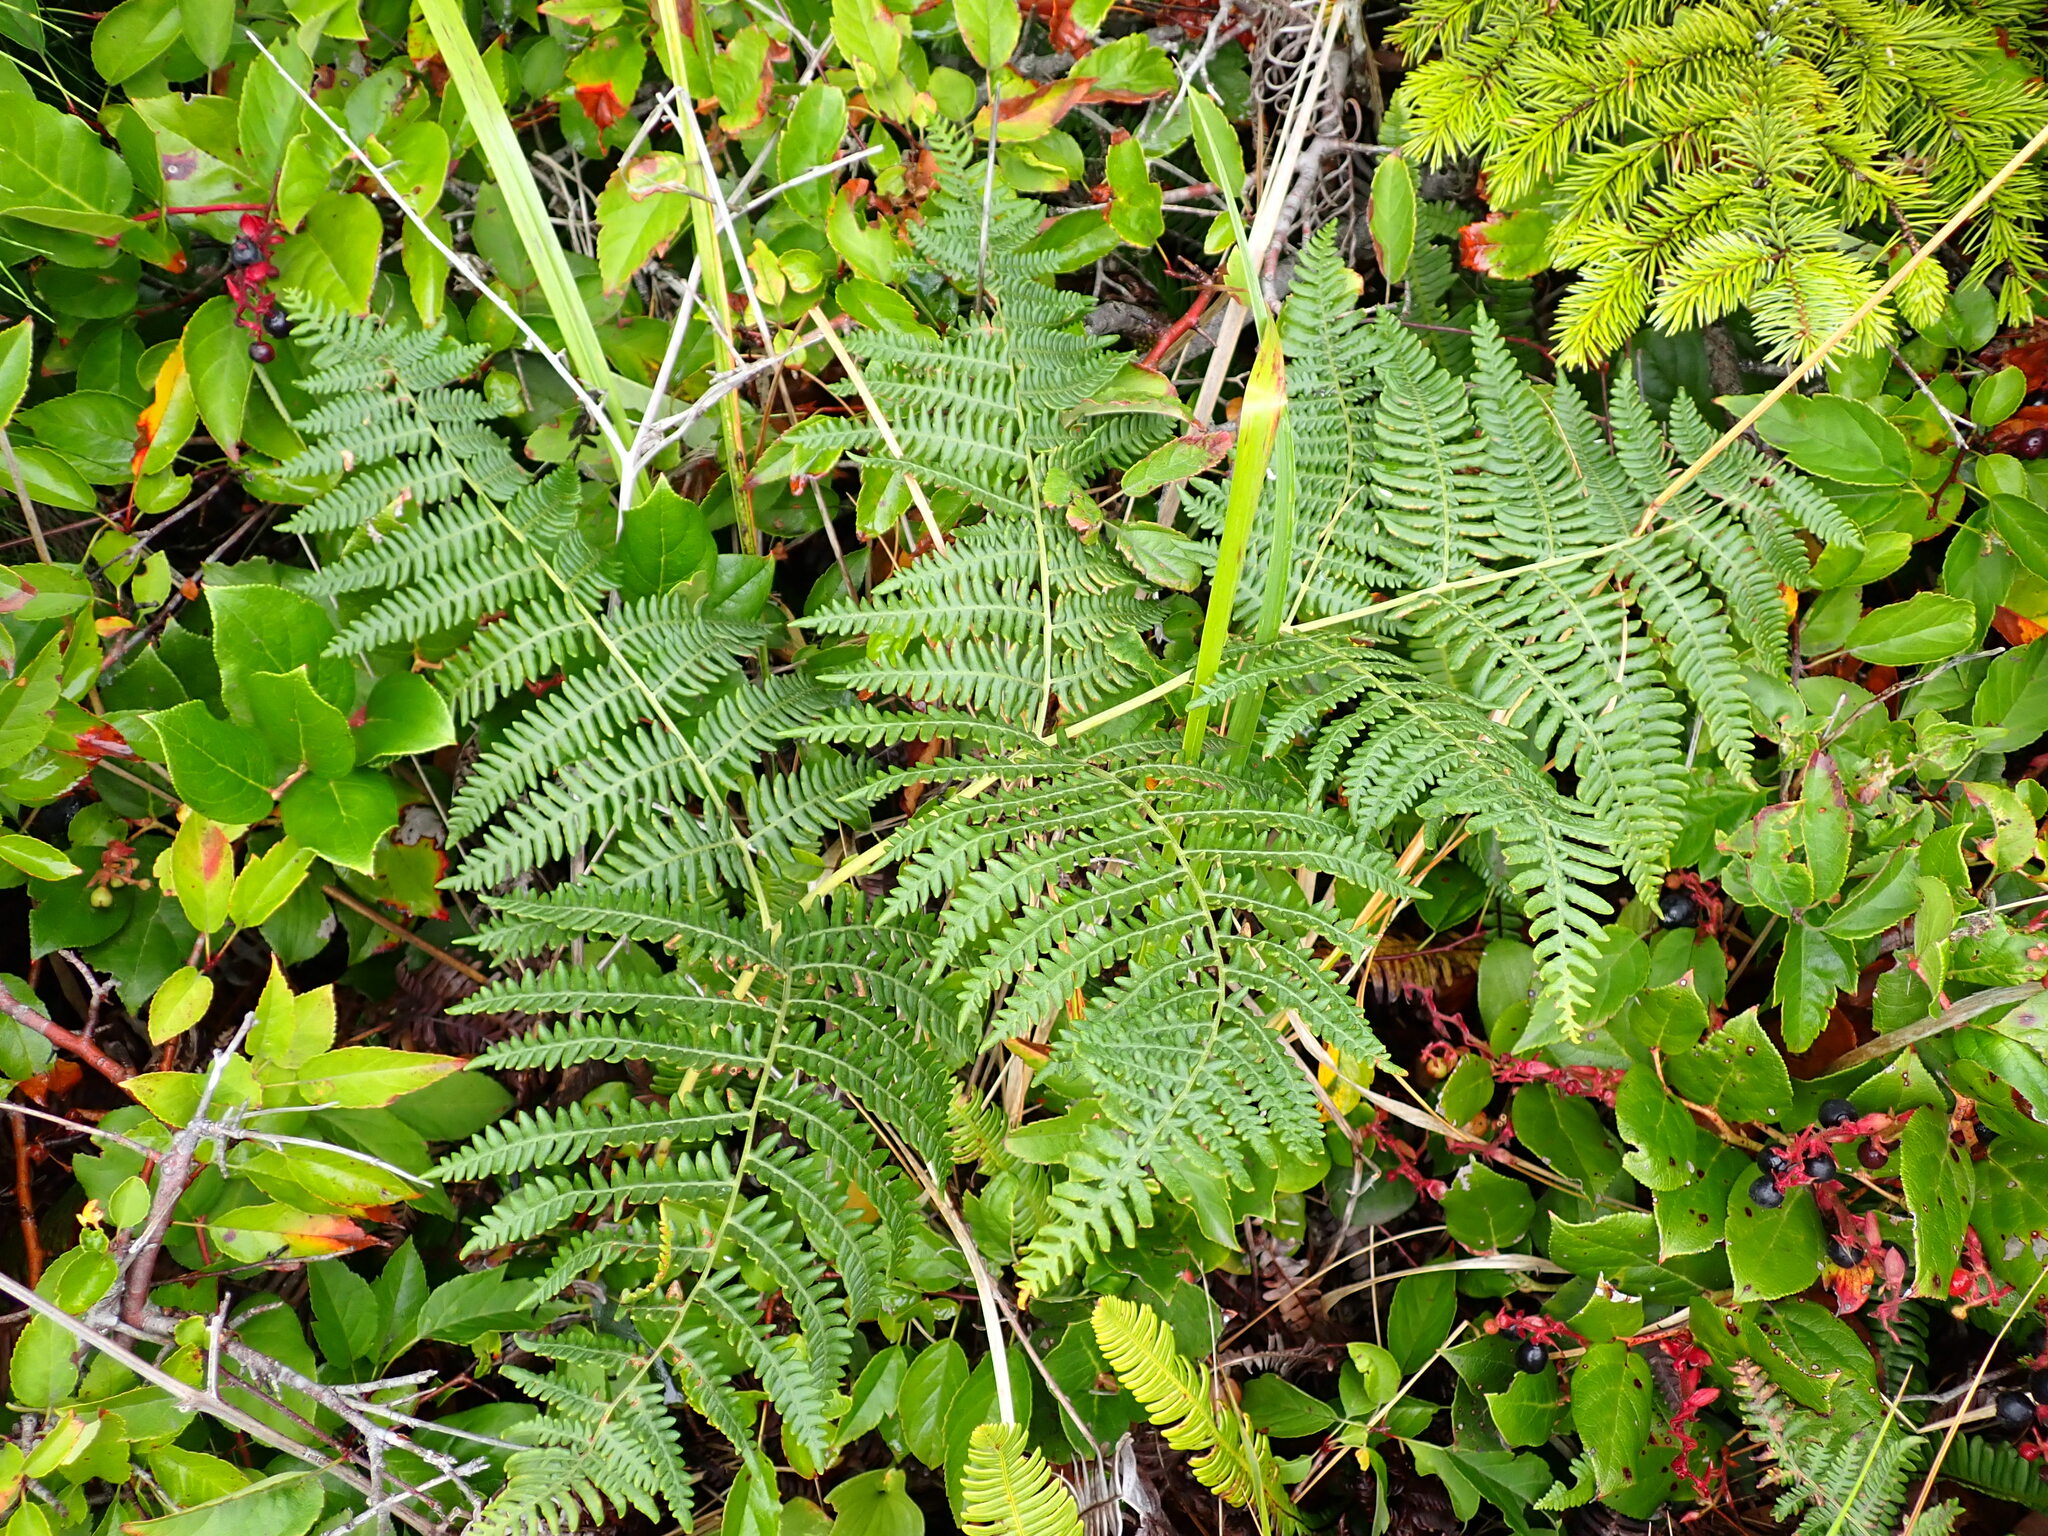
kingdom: Plantae
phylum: Tracheophyta
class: Polypodiopsida
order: Polypodiales
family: Dennstaedtiaceae
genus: Pteridium
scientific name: Pteridium aquilinum
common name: Bracken
